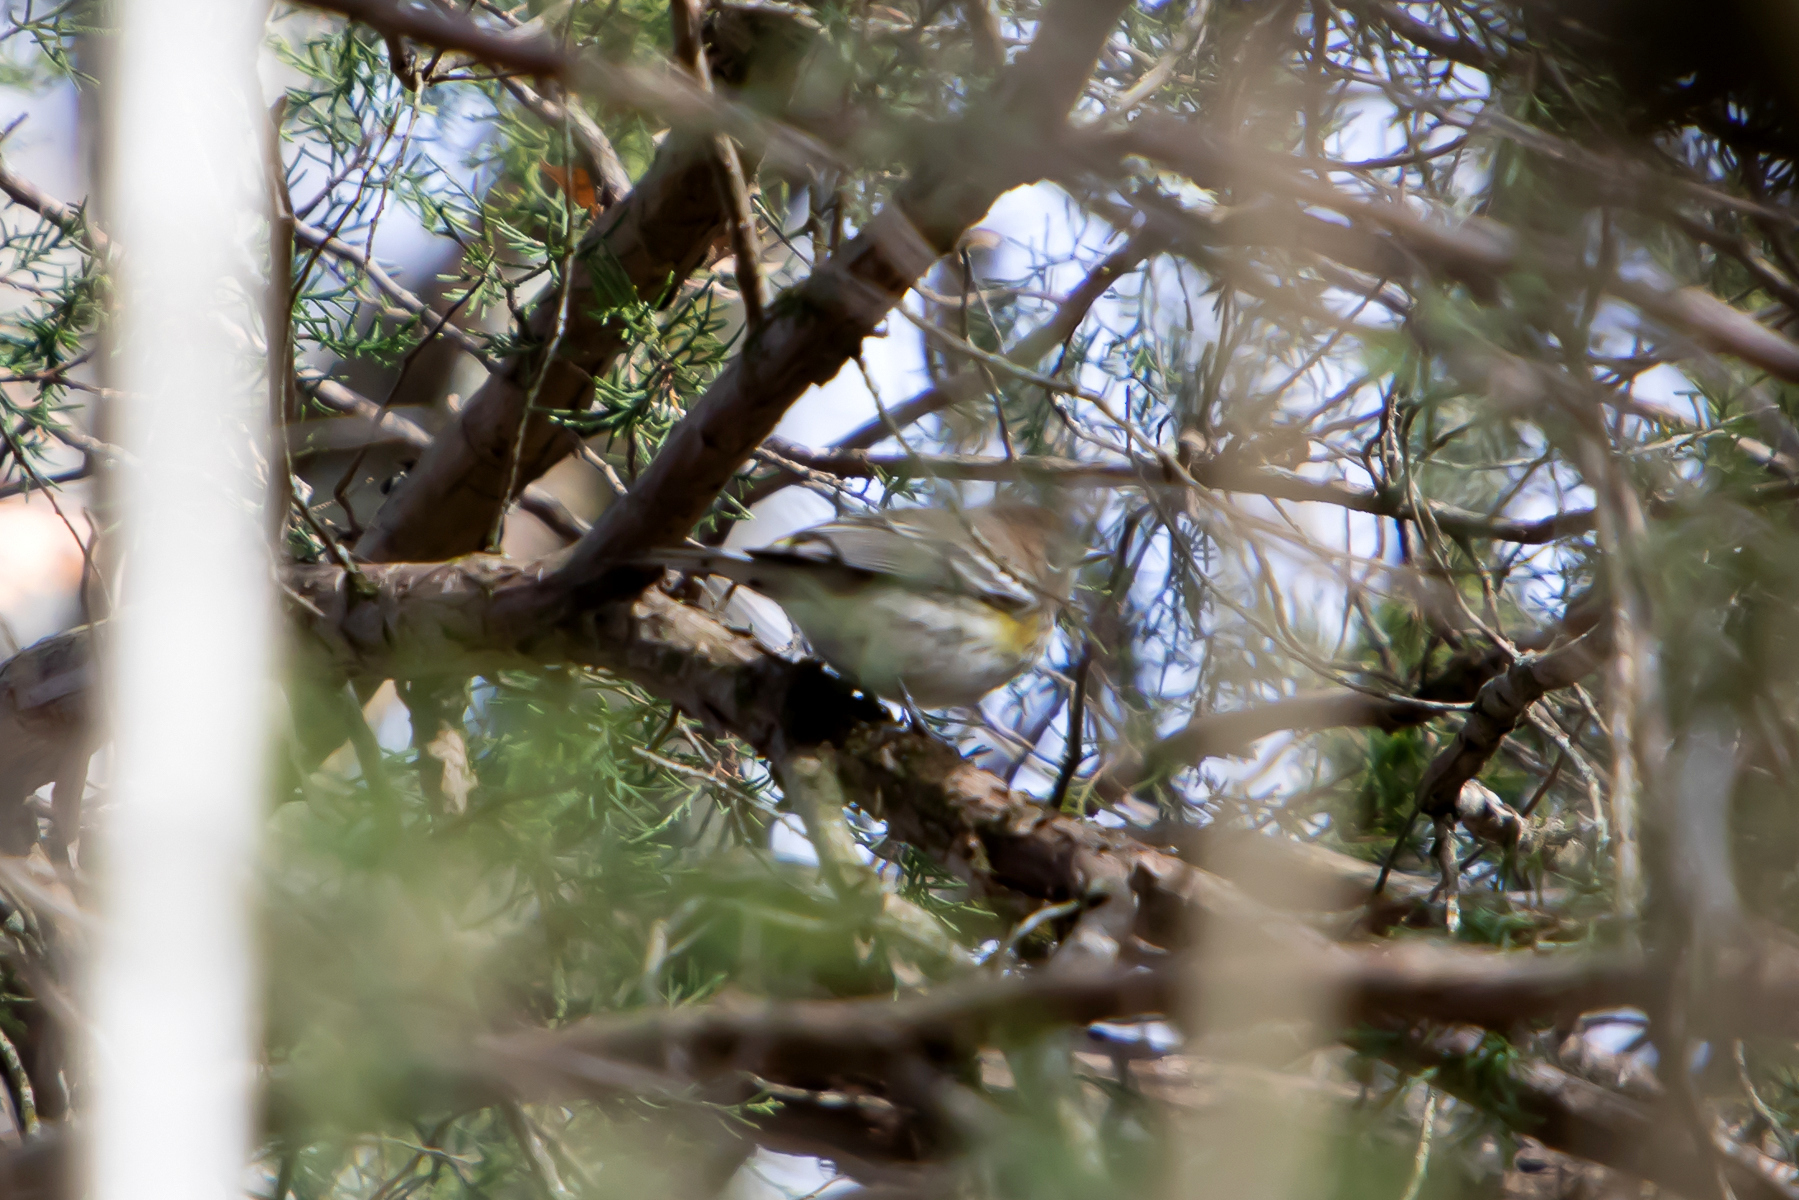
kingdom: Animalia
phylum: Chordata
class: Aves
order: Passeriformes
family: Parulidae
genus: Setophaga
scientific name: Setophaga coronata
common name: Myrtle warbler
